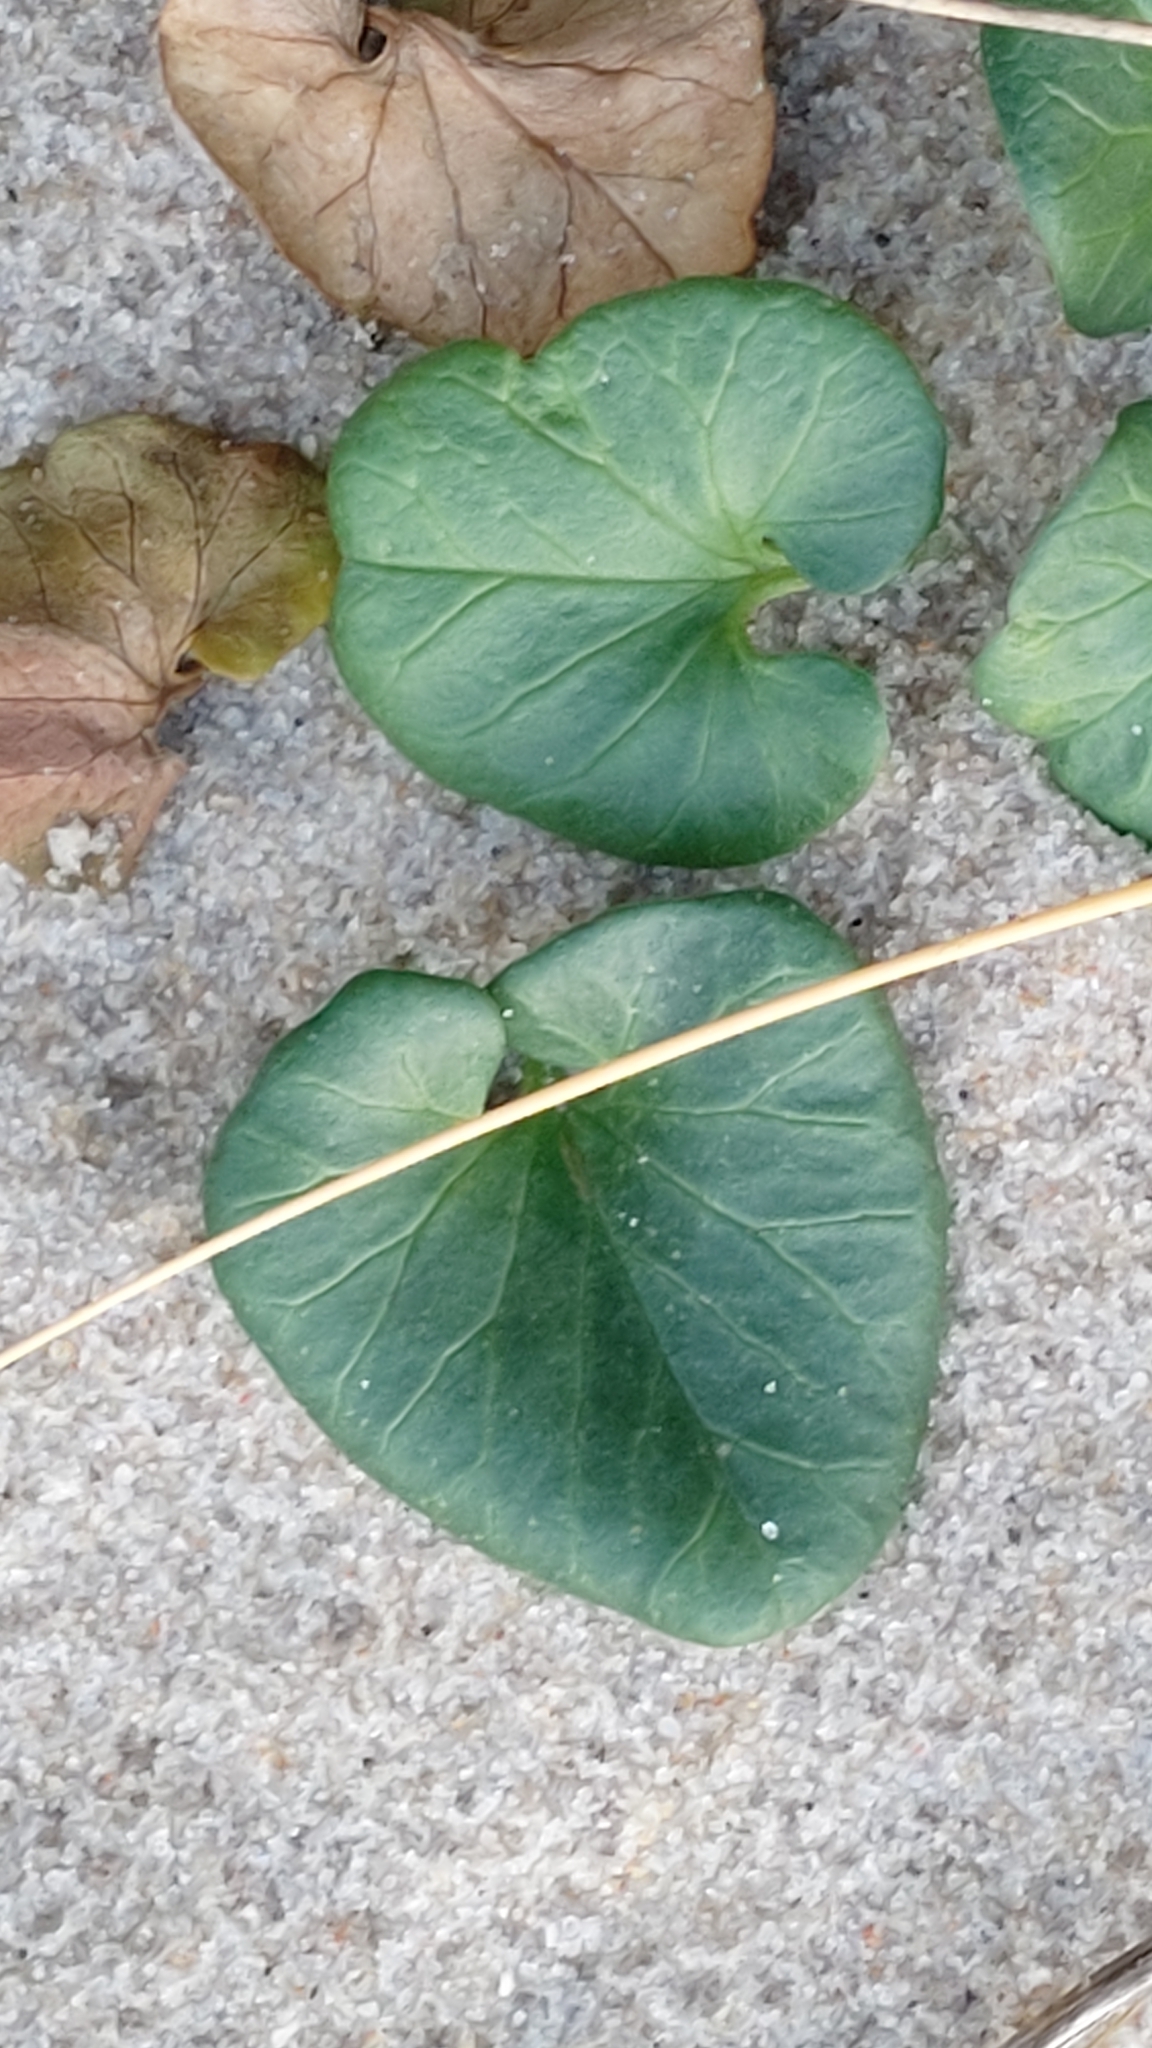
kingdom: Plantae
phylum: Tracheophyta
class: Magnoliopsida
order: Solanales
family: Convolvulaceae
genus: Calystegia
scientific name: Calystegia soldanella
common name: Sea bindweed
